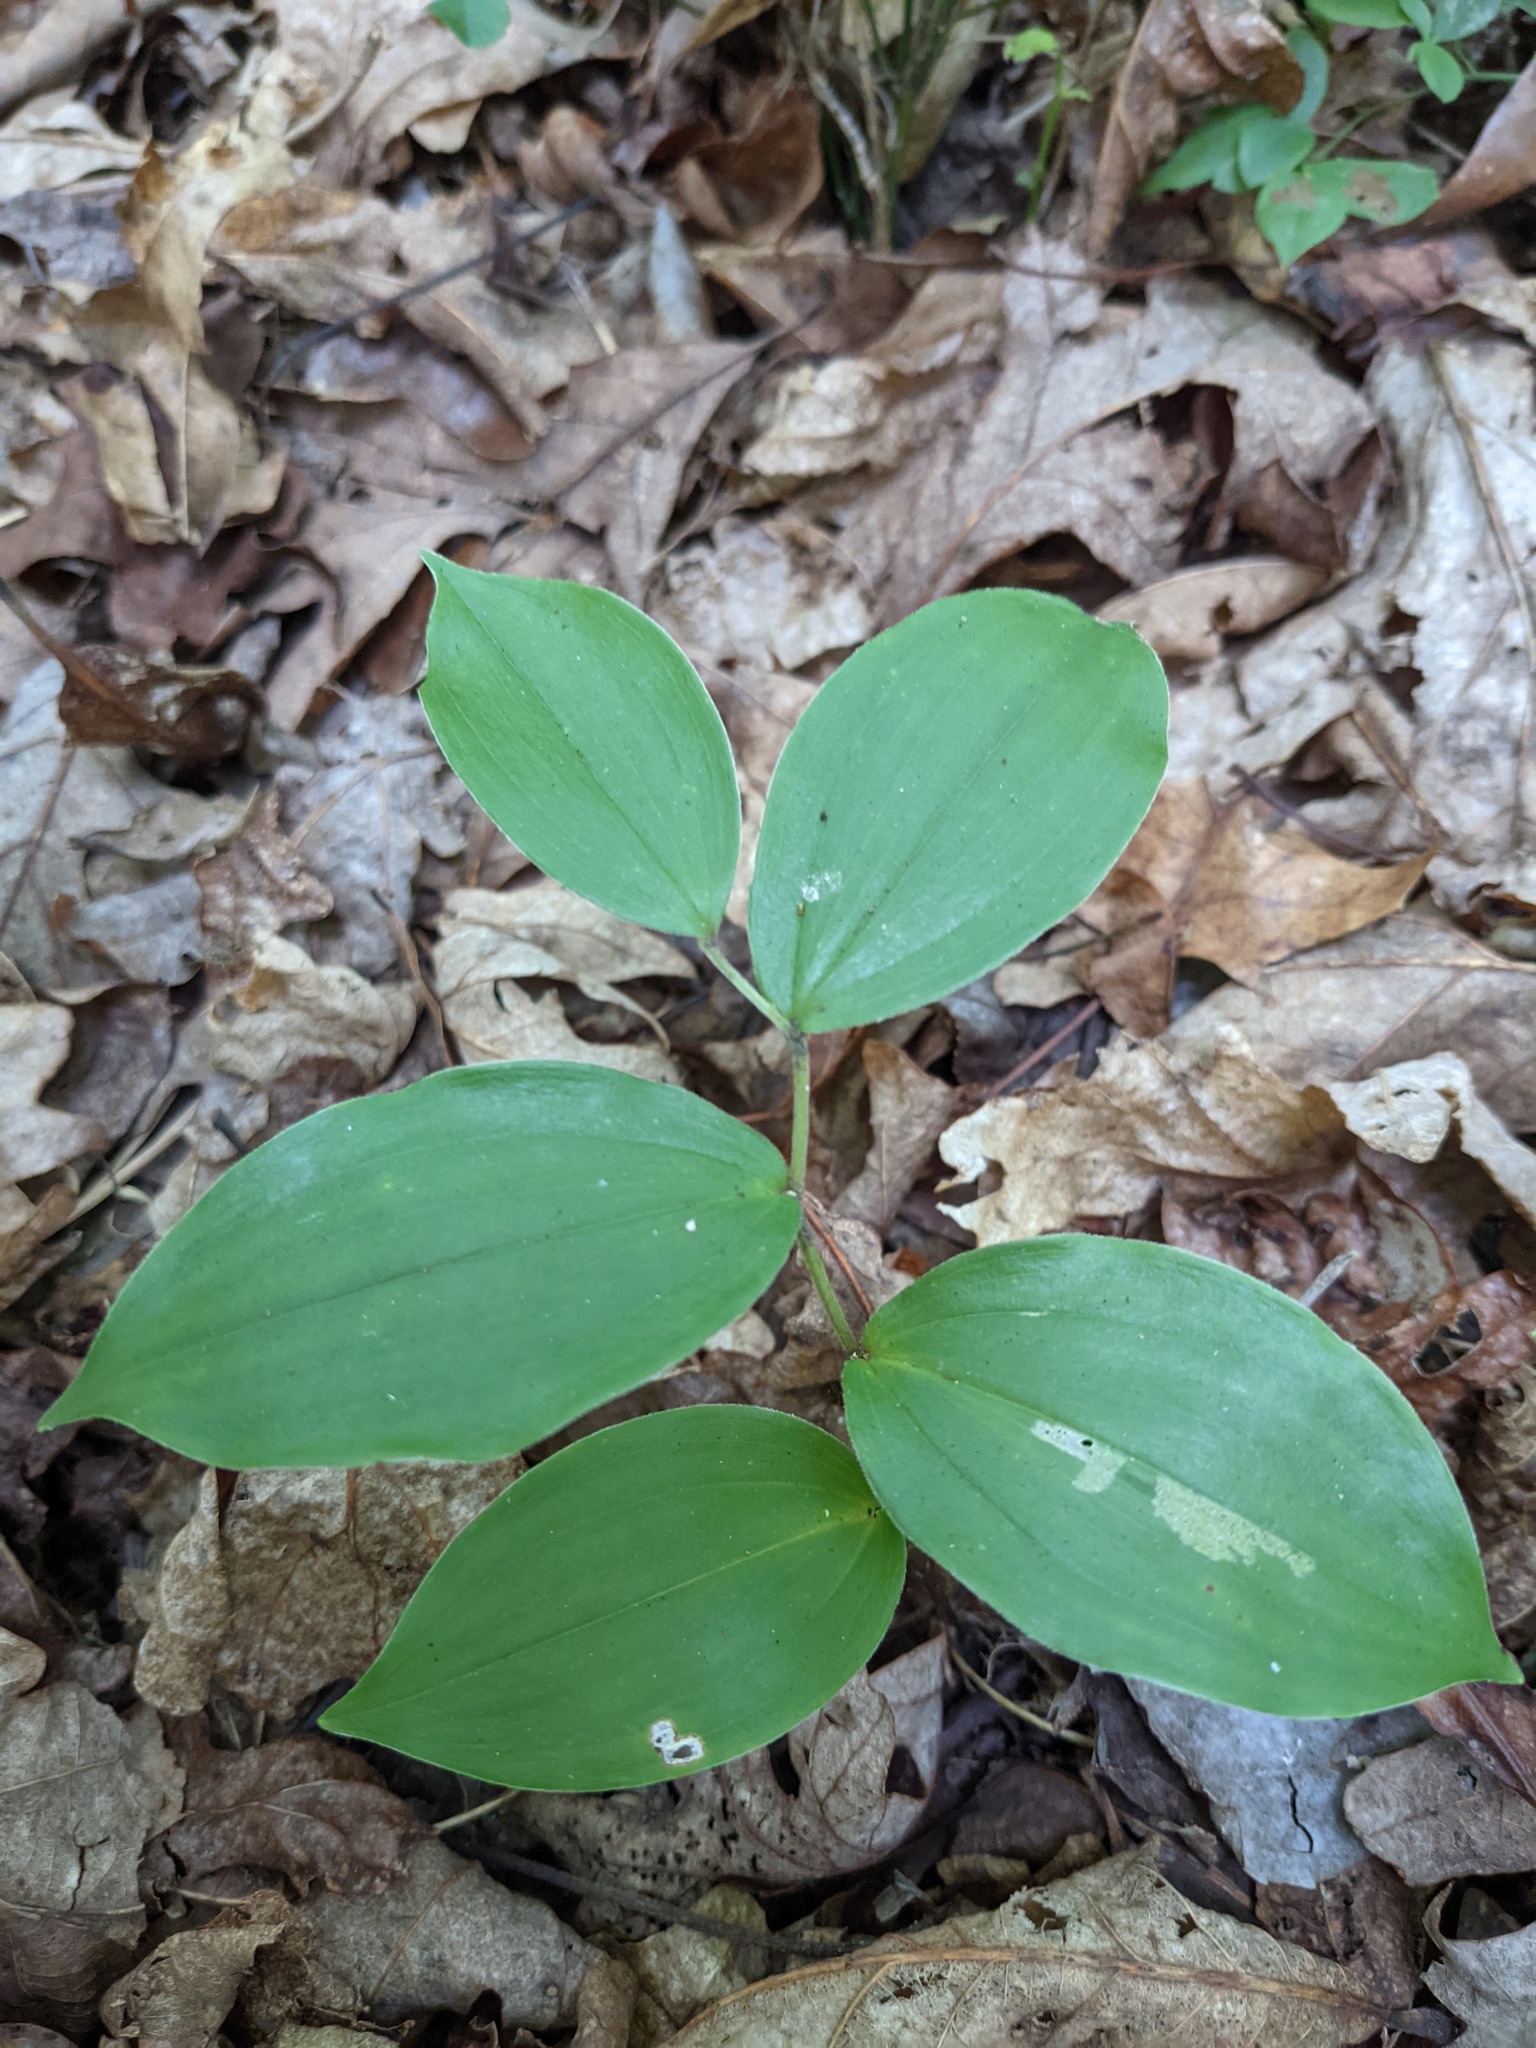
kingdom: Plantae
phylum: Tracheophyta
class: Liliopsida
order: Asparagales
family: Asparagaceae
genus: Maianthemum
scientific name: Maianthemum racemosum
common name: False spikenard
